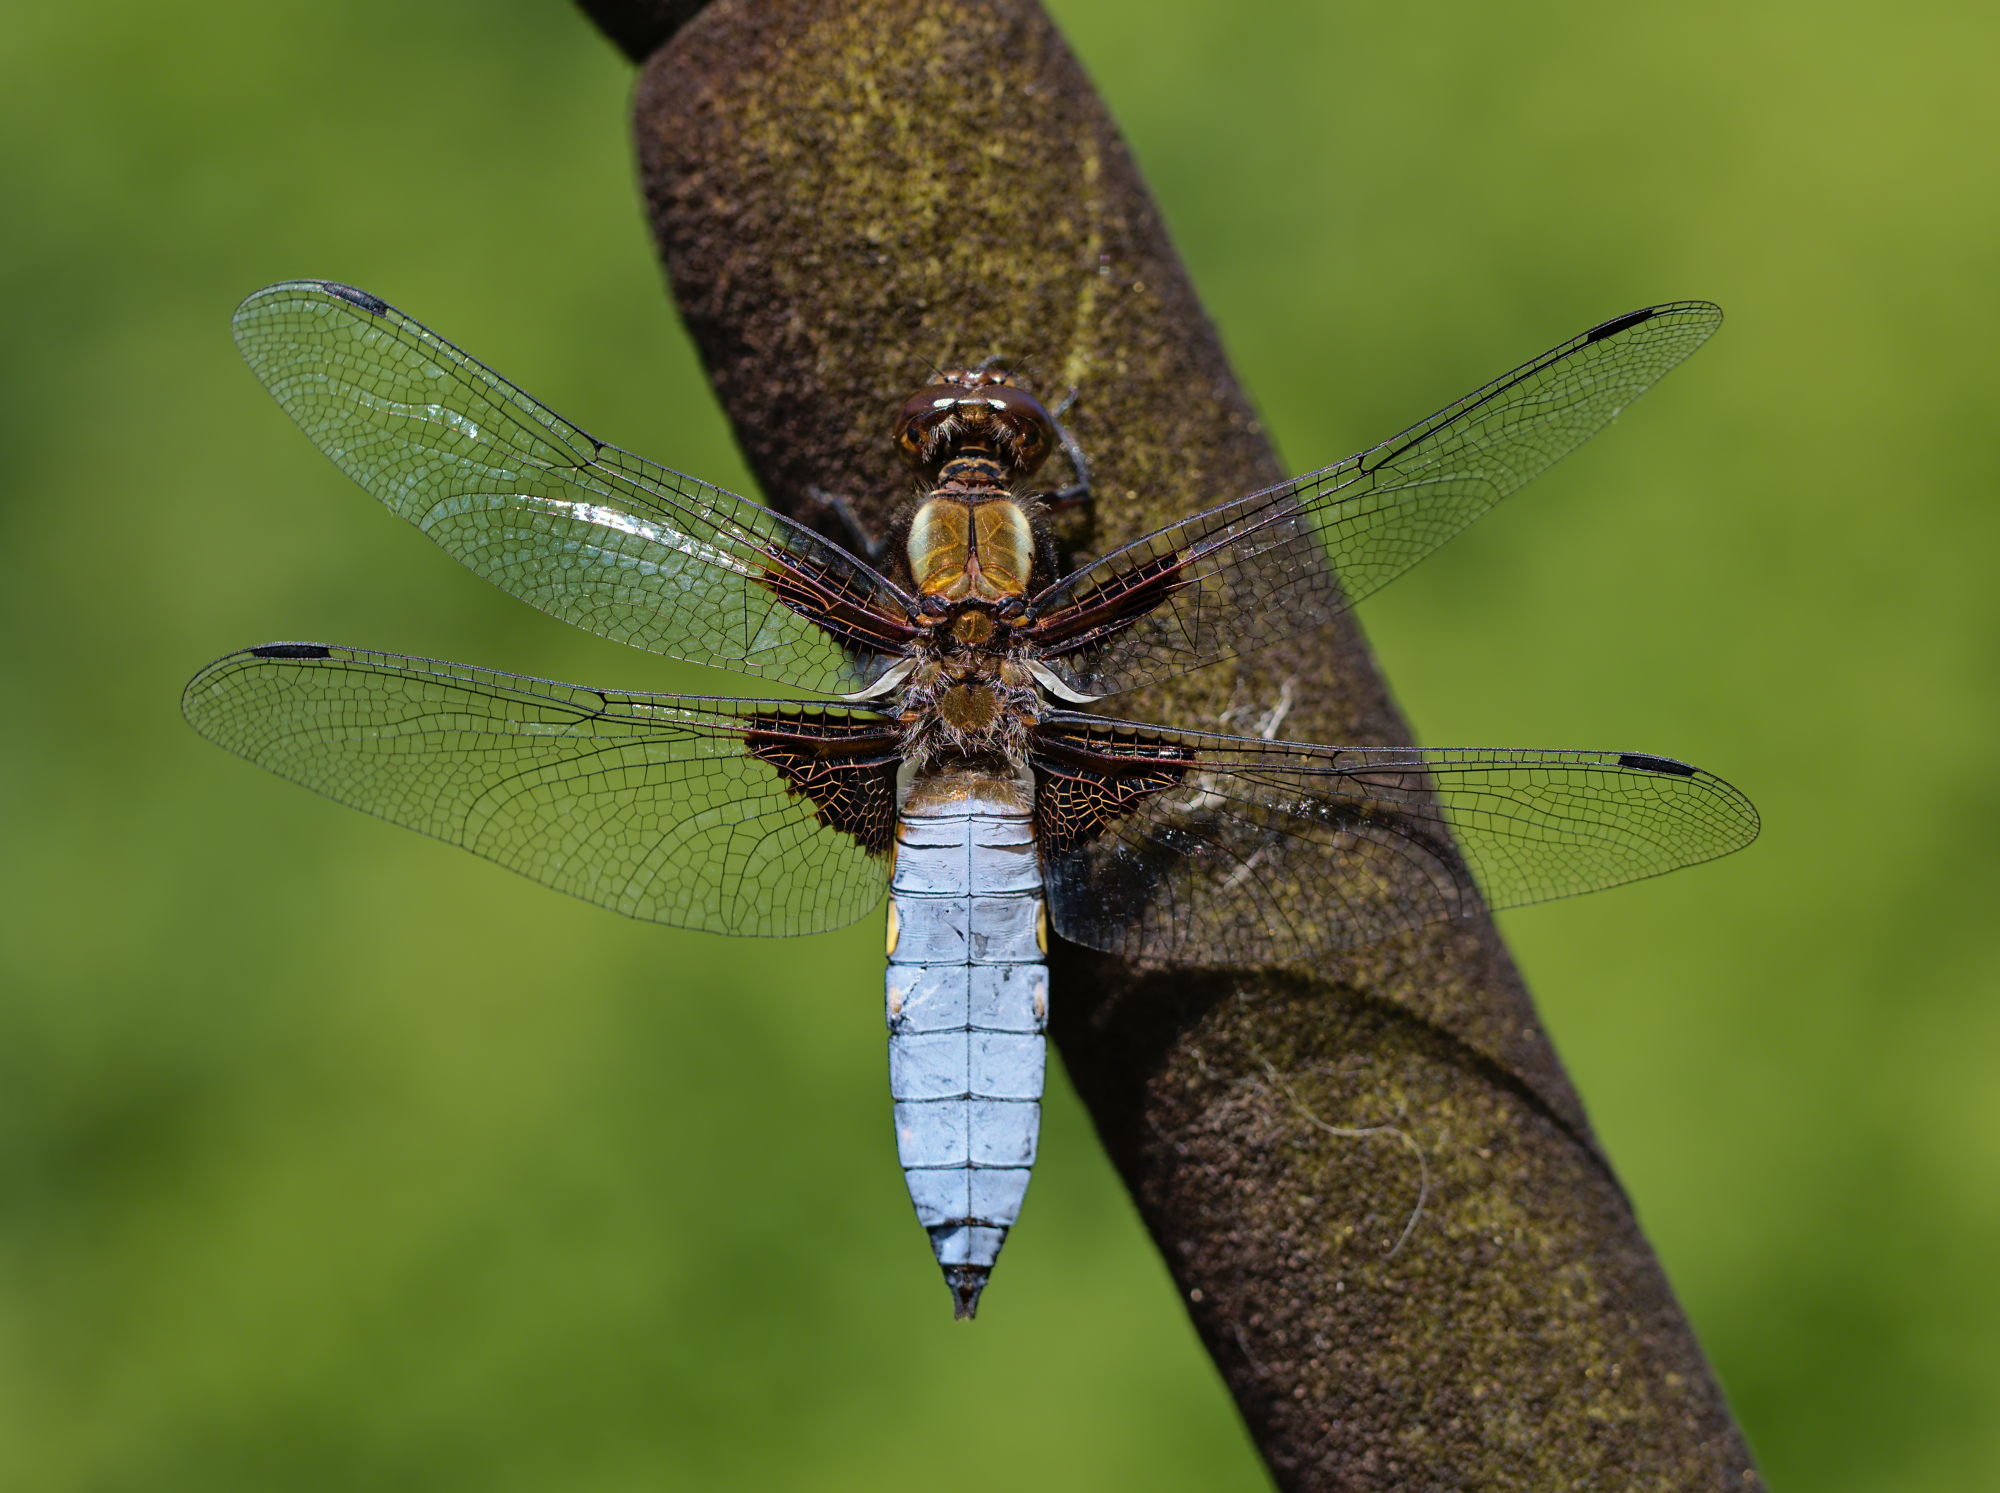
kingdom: Animalia
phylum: Arthropoda
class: Insecta
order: Odonata
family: Libellulidae
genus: Libellula
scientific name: Libellula depressa
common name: Broad-bodied chaser
